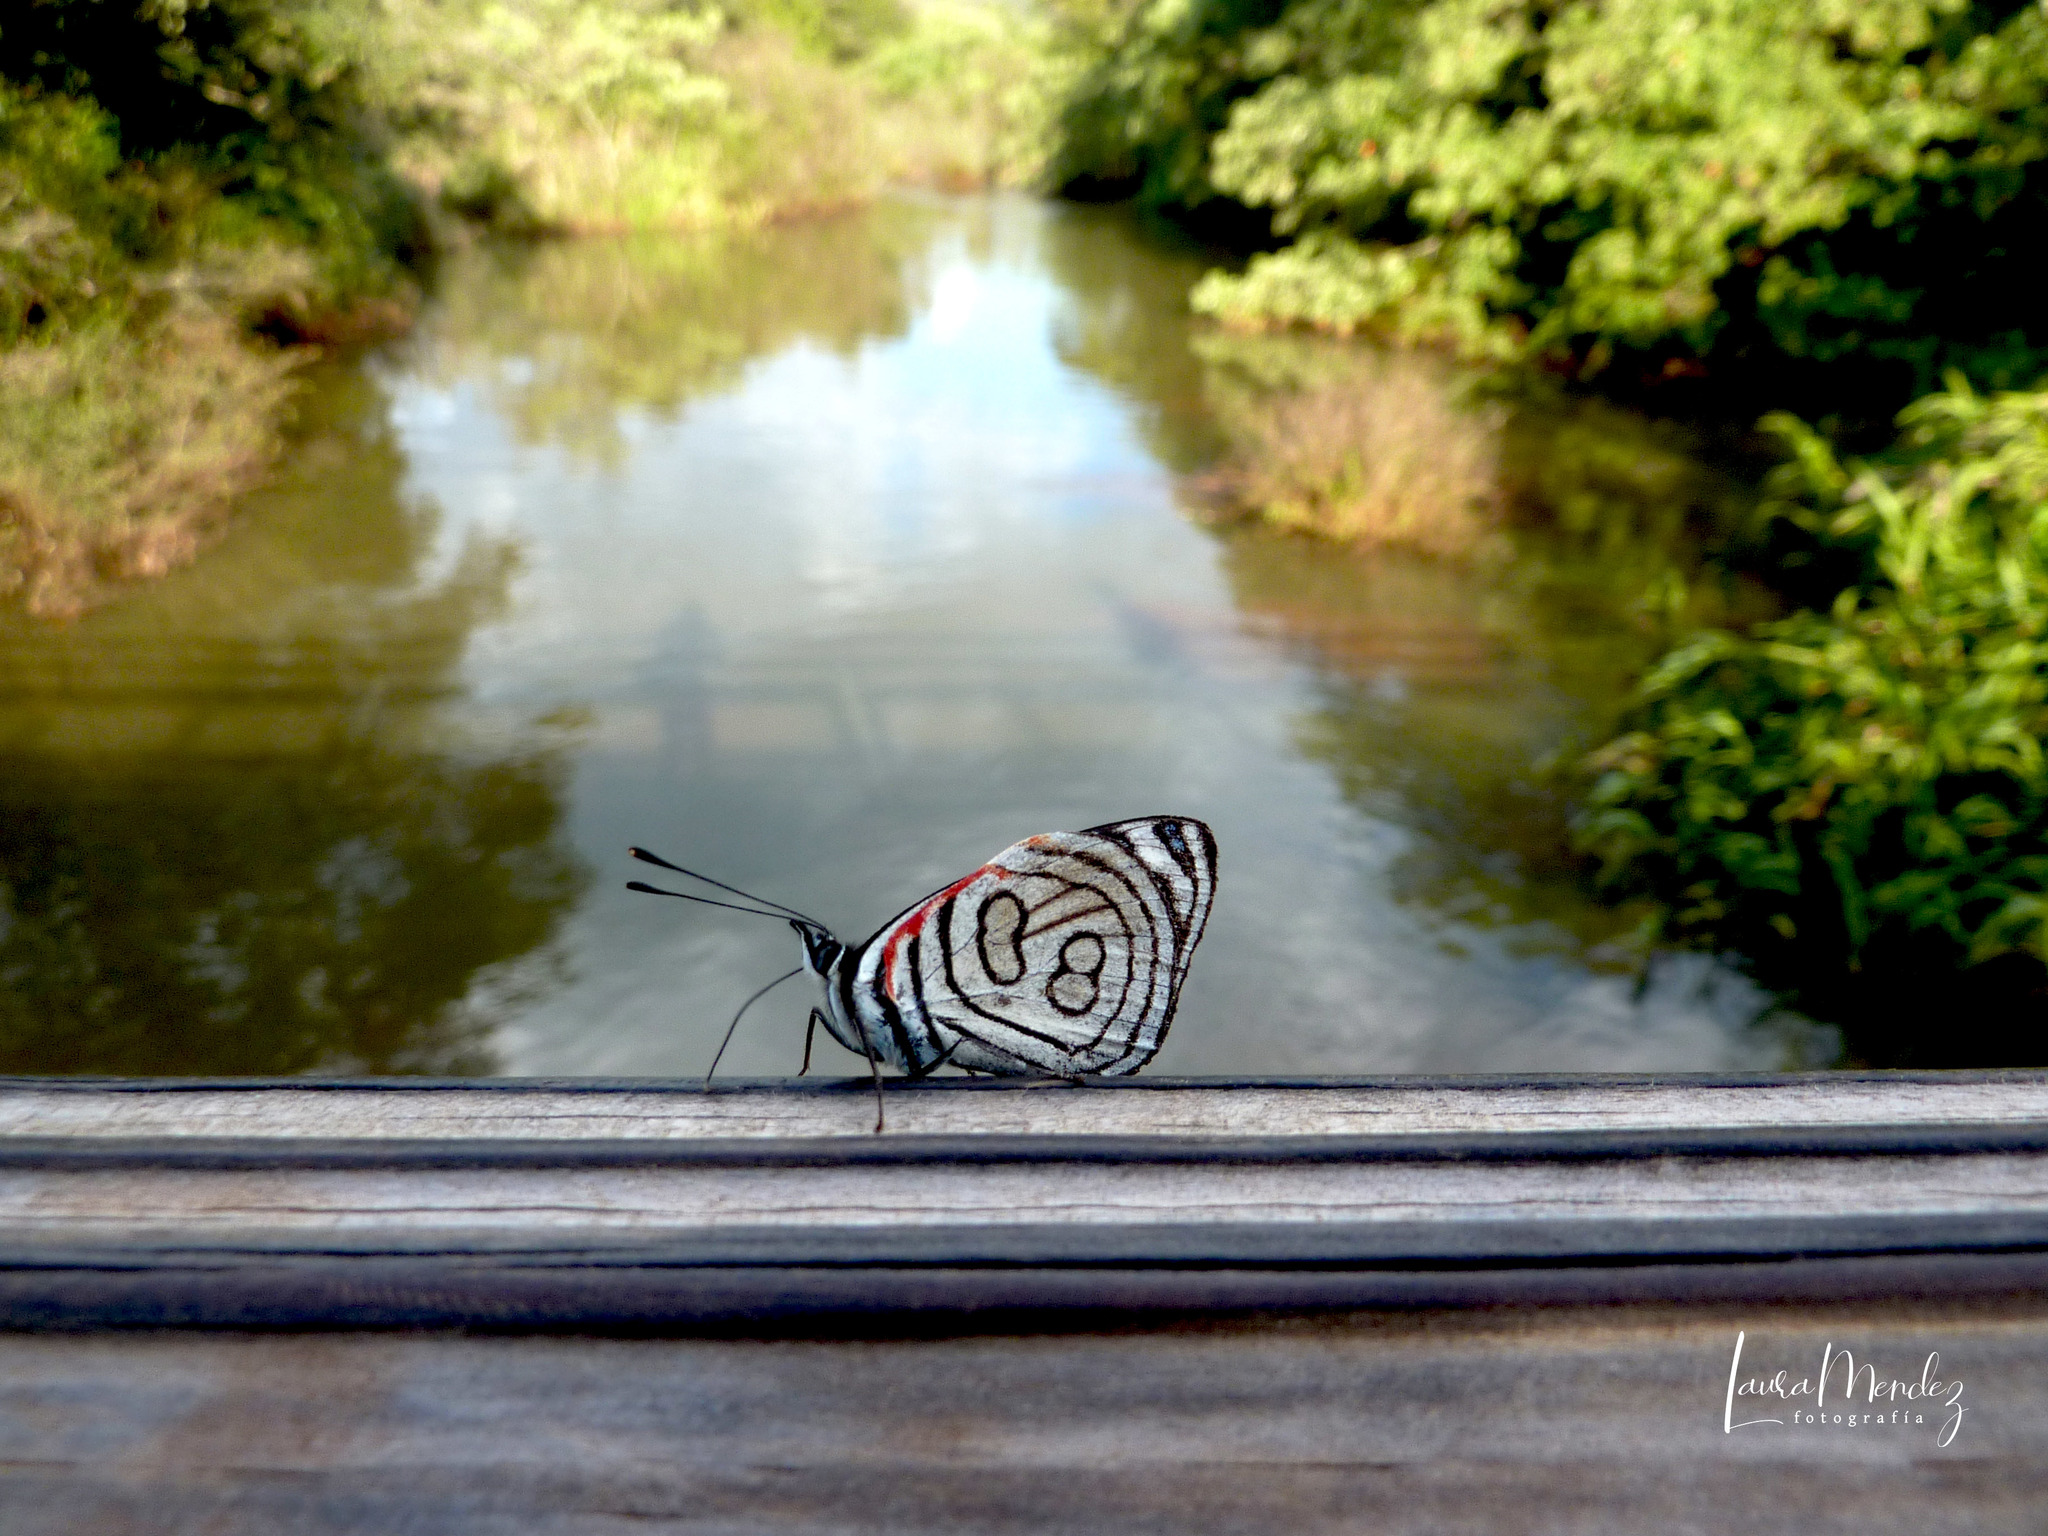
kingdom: Animalia
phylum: Arthropoda
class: Insecta
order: Lepidoptera
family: Nymphalidae
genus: Diaethria
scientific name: Diaethria candrena
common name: Number eighty
